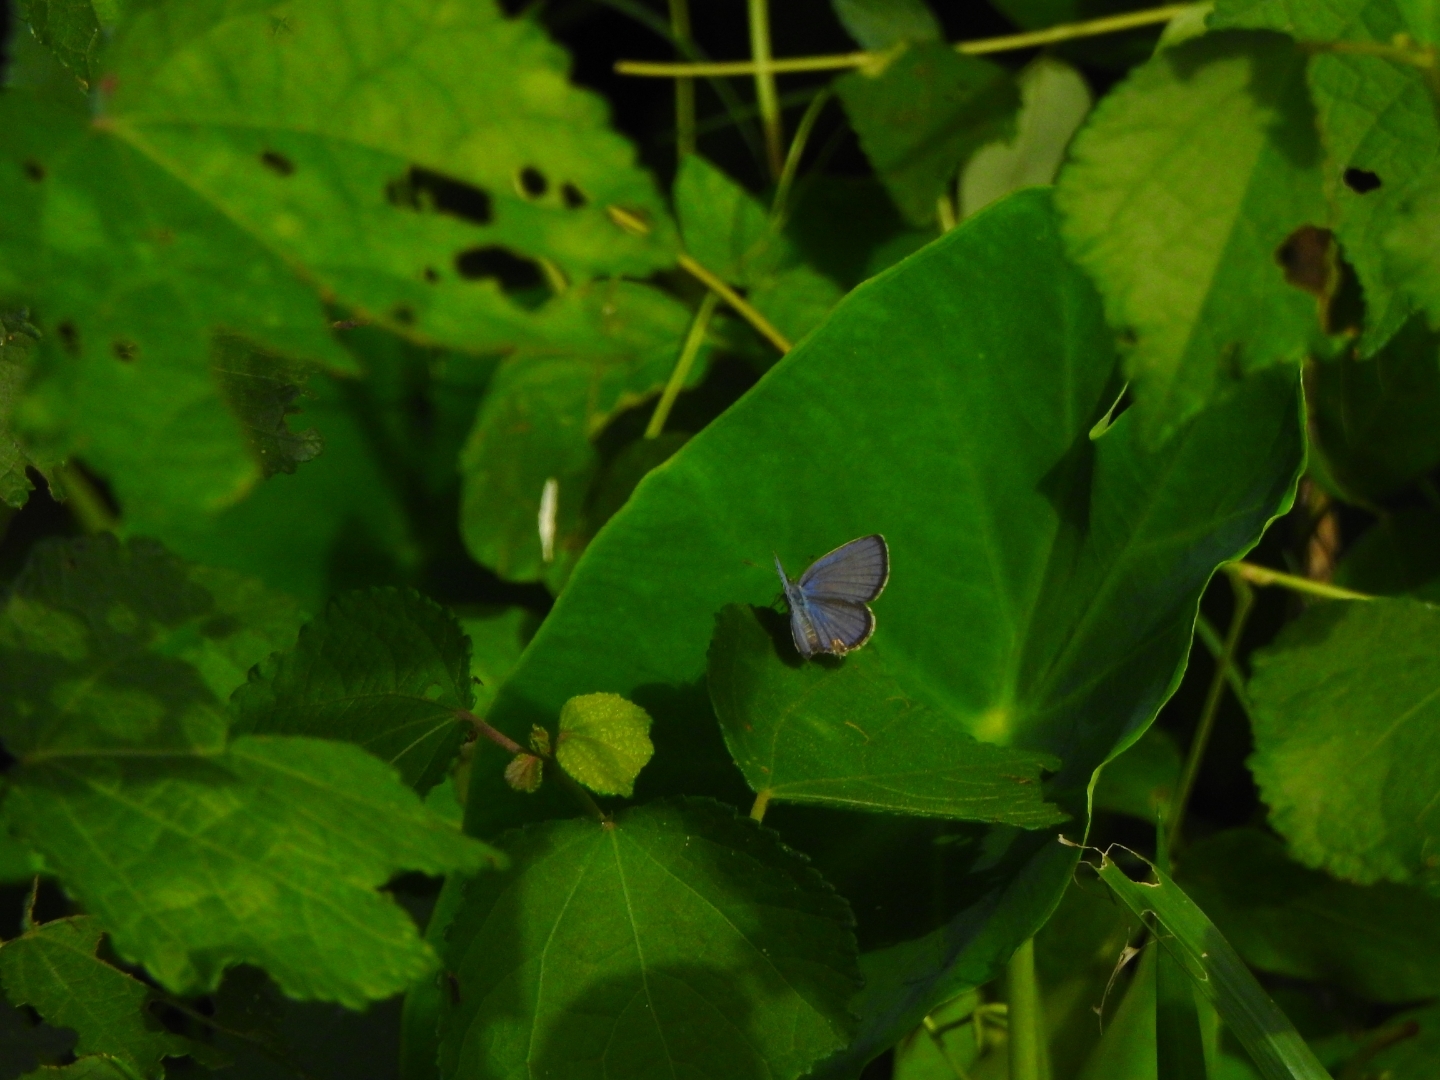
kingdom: Animalia
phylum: Arthropoda
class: Insecta
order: Lepidoptera
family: Lycaenidae
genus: Luthrodes
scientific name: Luthrodes pandava
